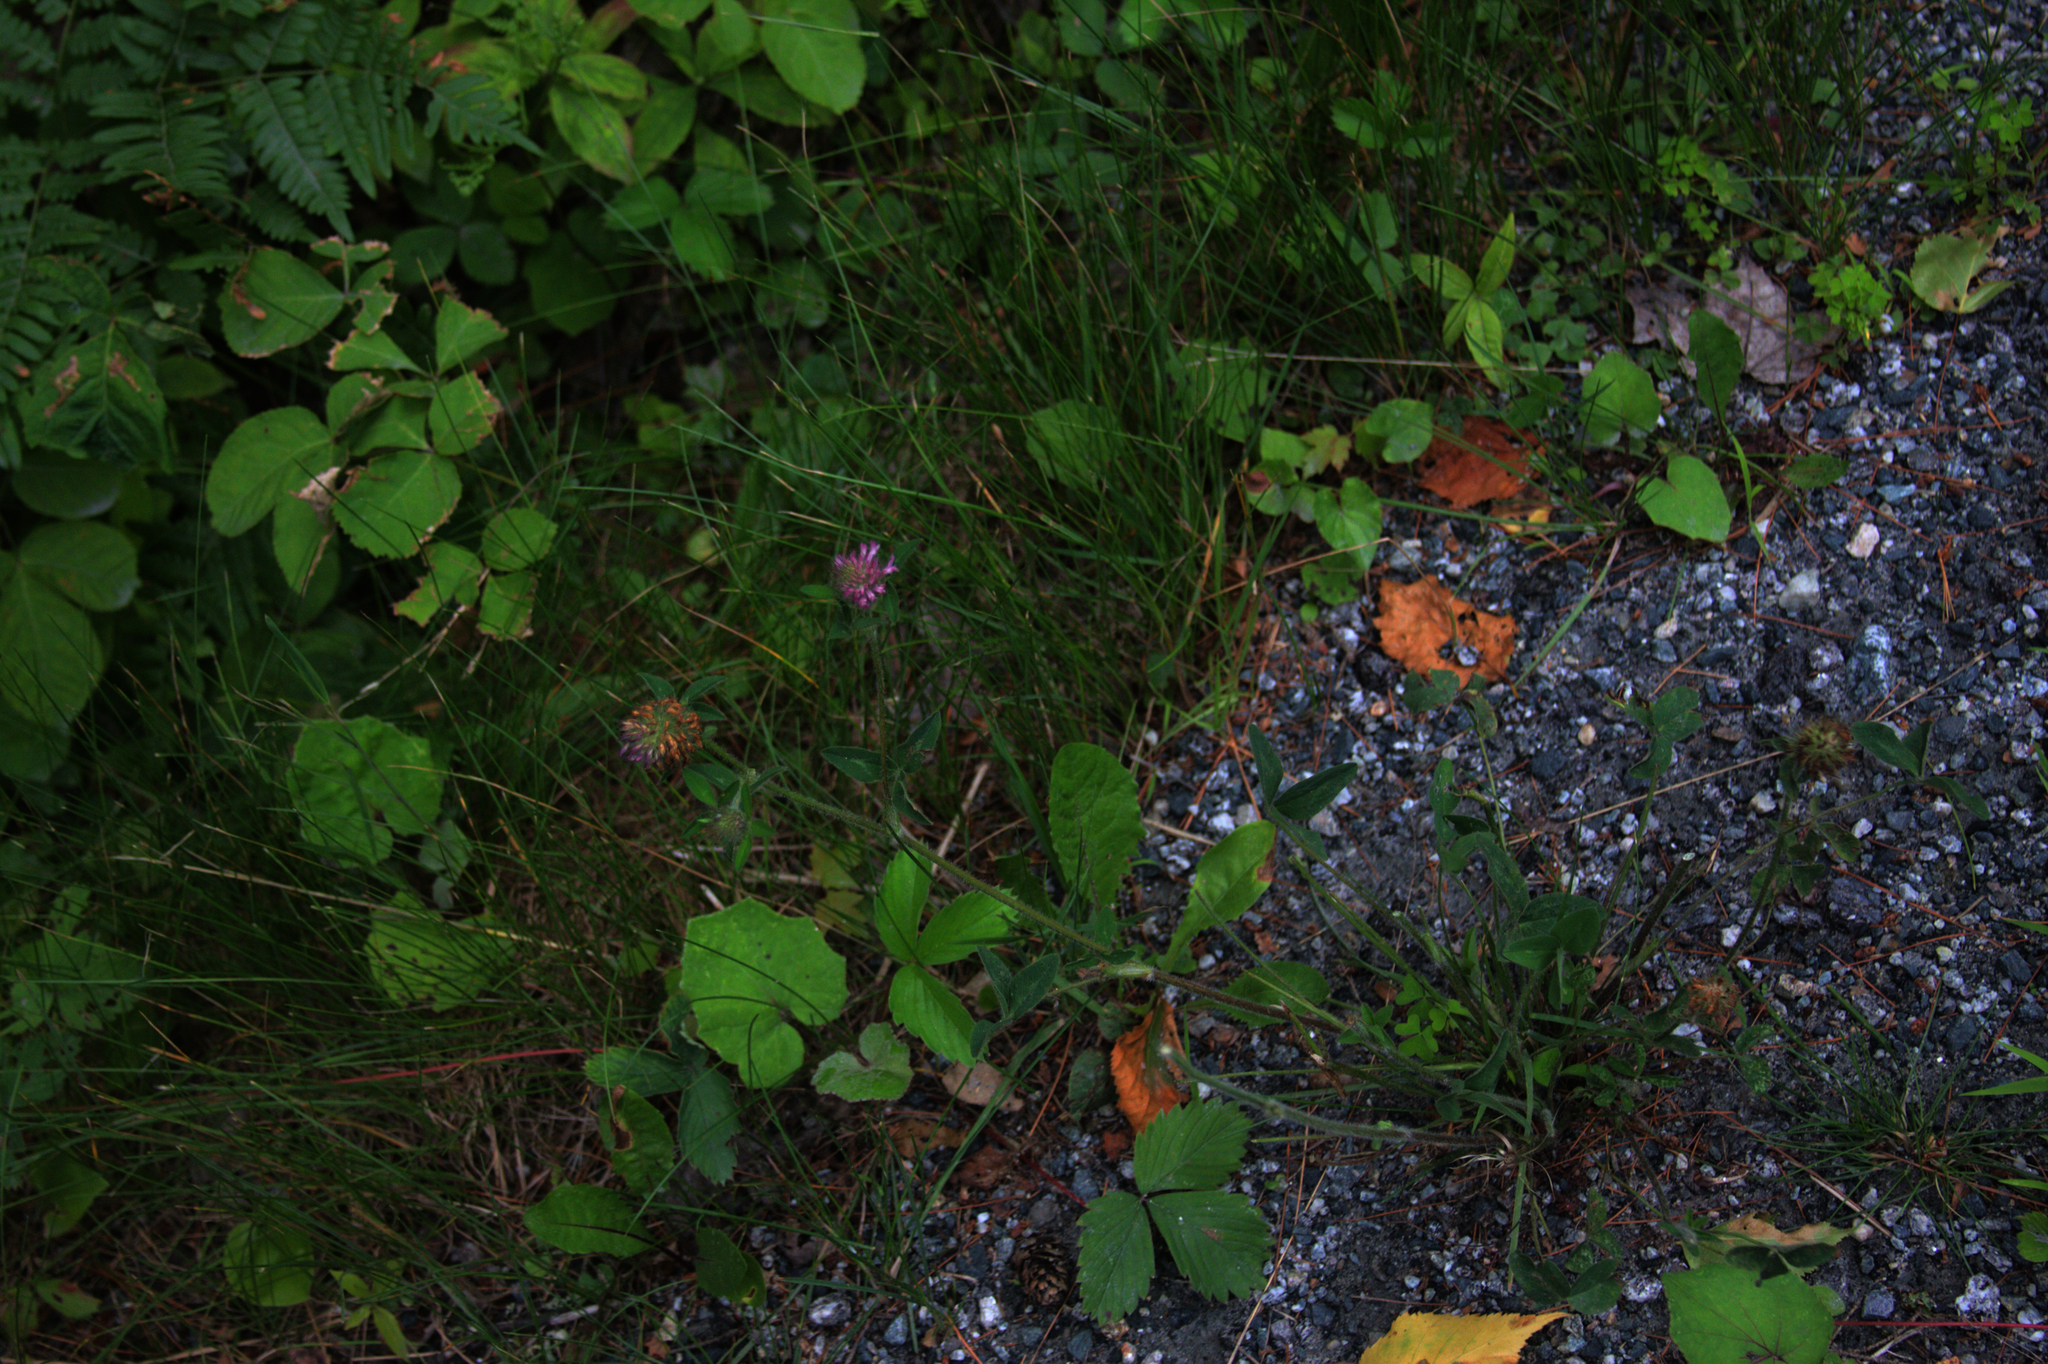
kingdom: Plantae
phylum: Tracheophyta
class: Magnoliopsida
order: Fabales
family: Fabaceae
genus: Trifolium
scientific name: Trifolium pratense
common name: Red clover
